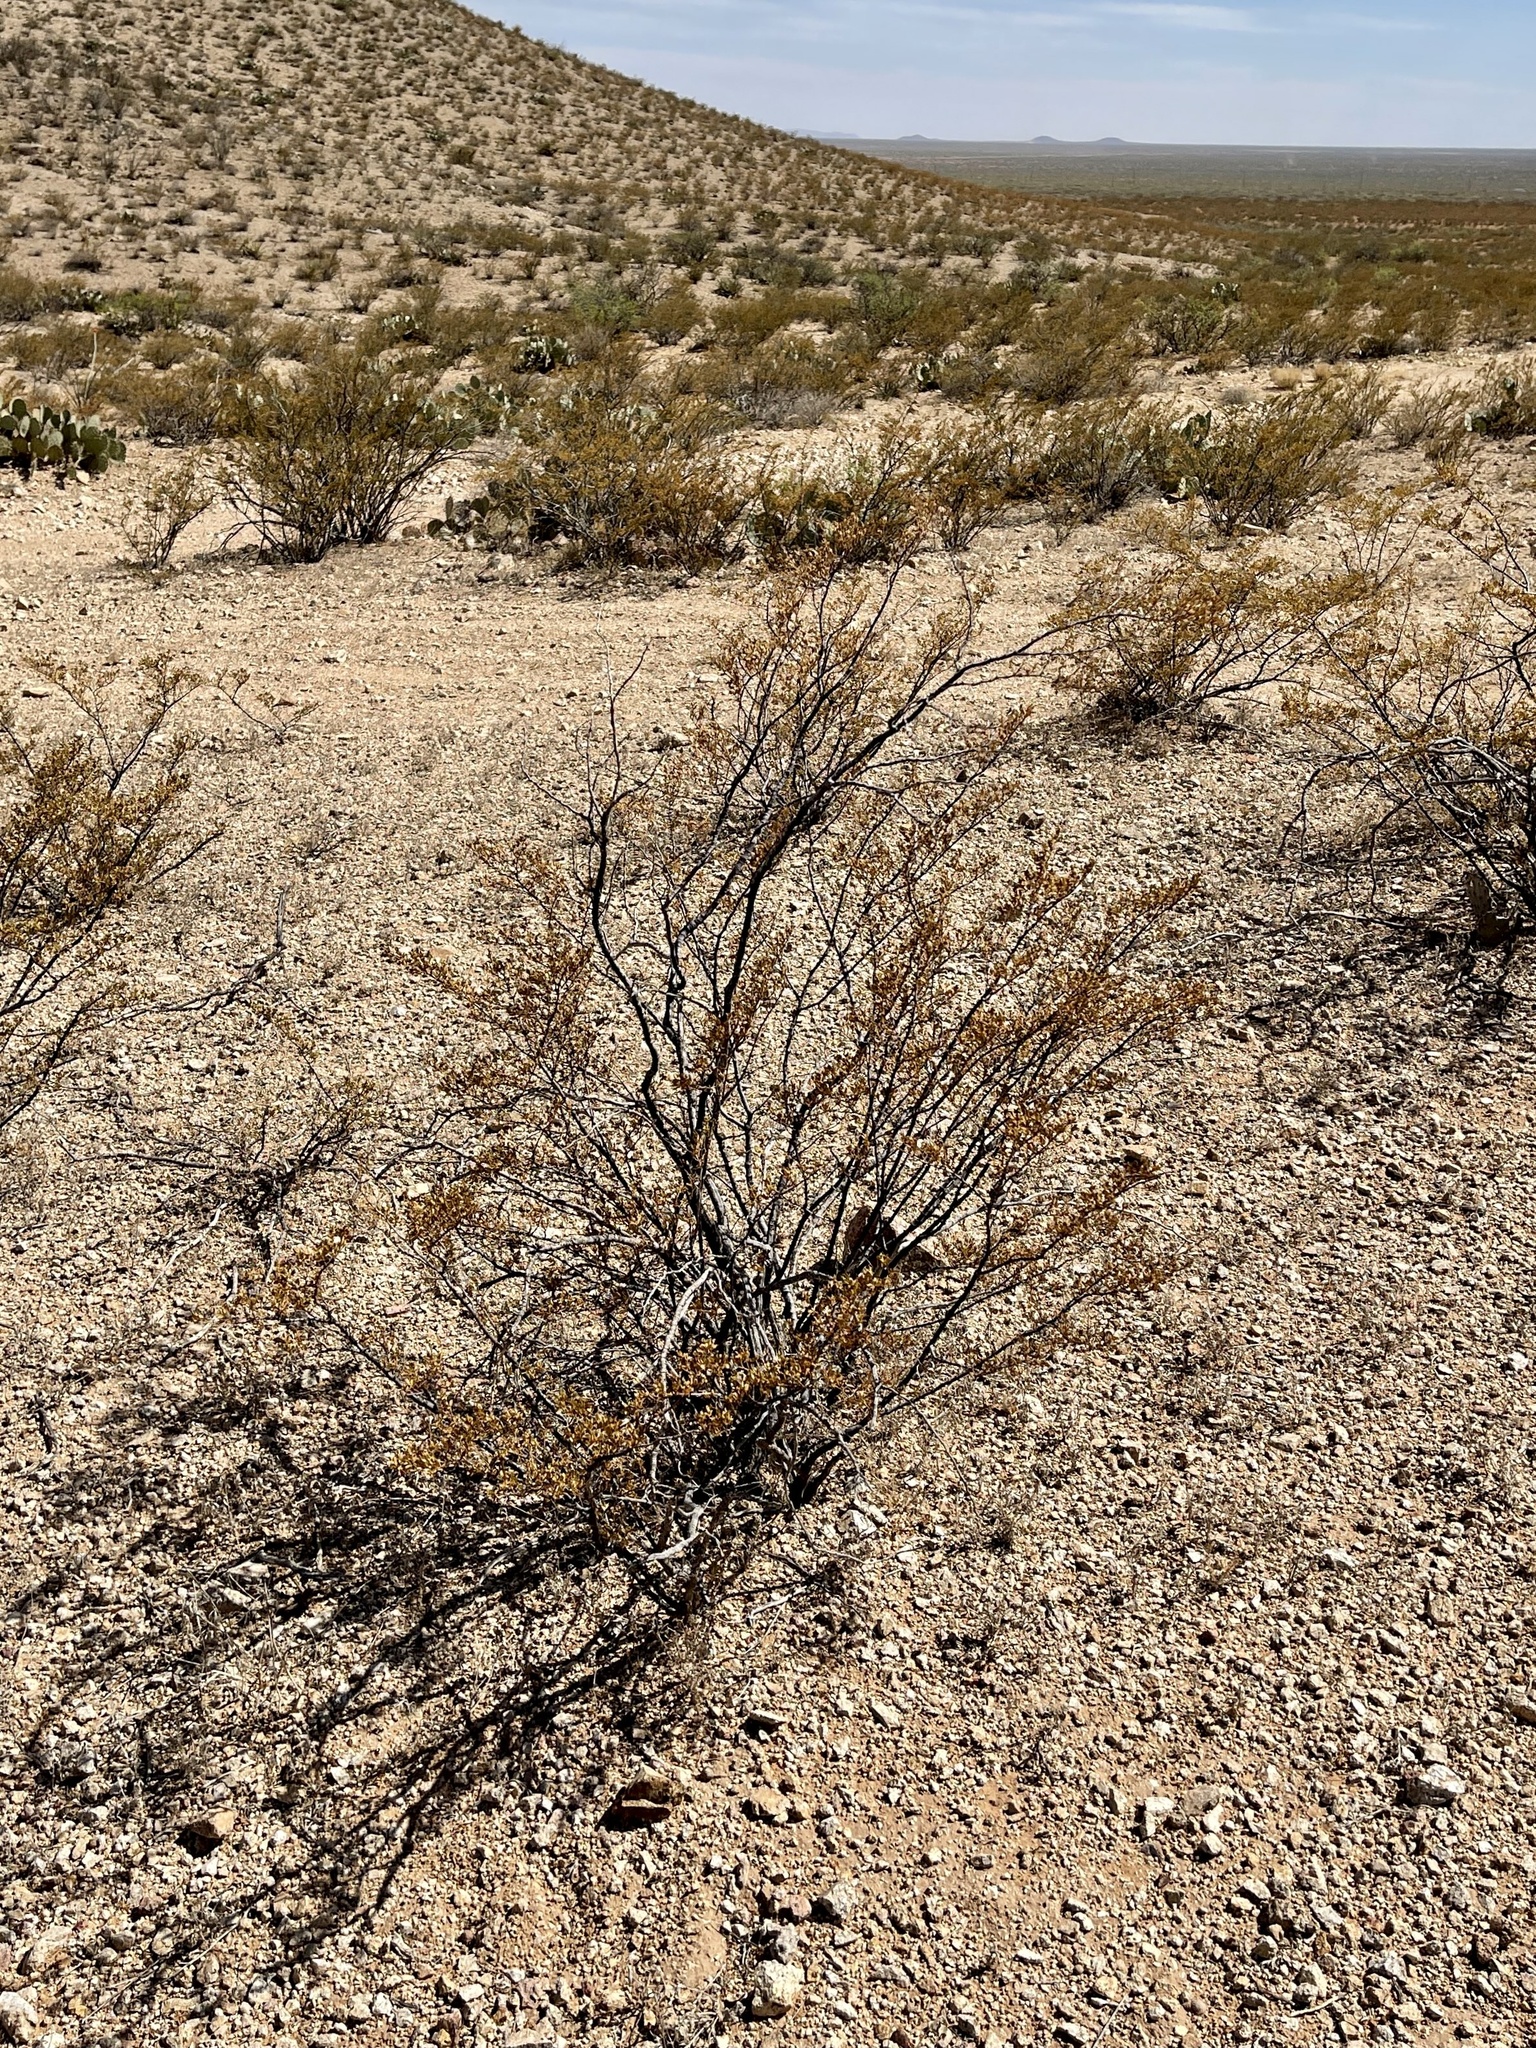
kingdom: Plantae
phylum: Tracheophyta
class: Magnoliopsida
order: Zygophyllales
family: Zygophyllaceae
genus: Larrea
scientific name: Larrea tridentata
